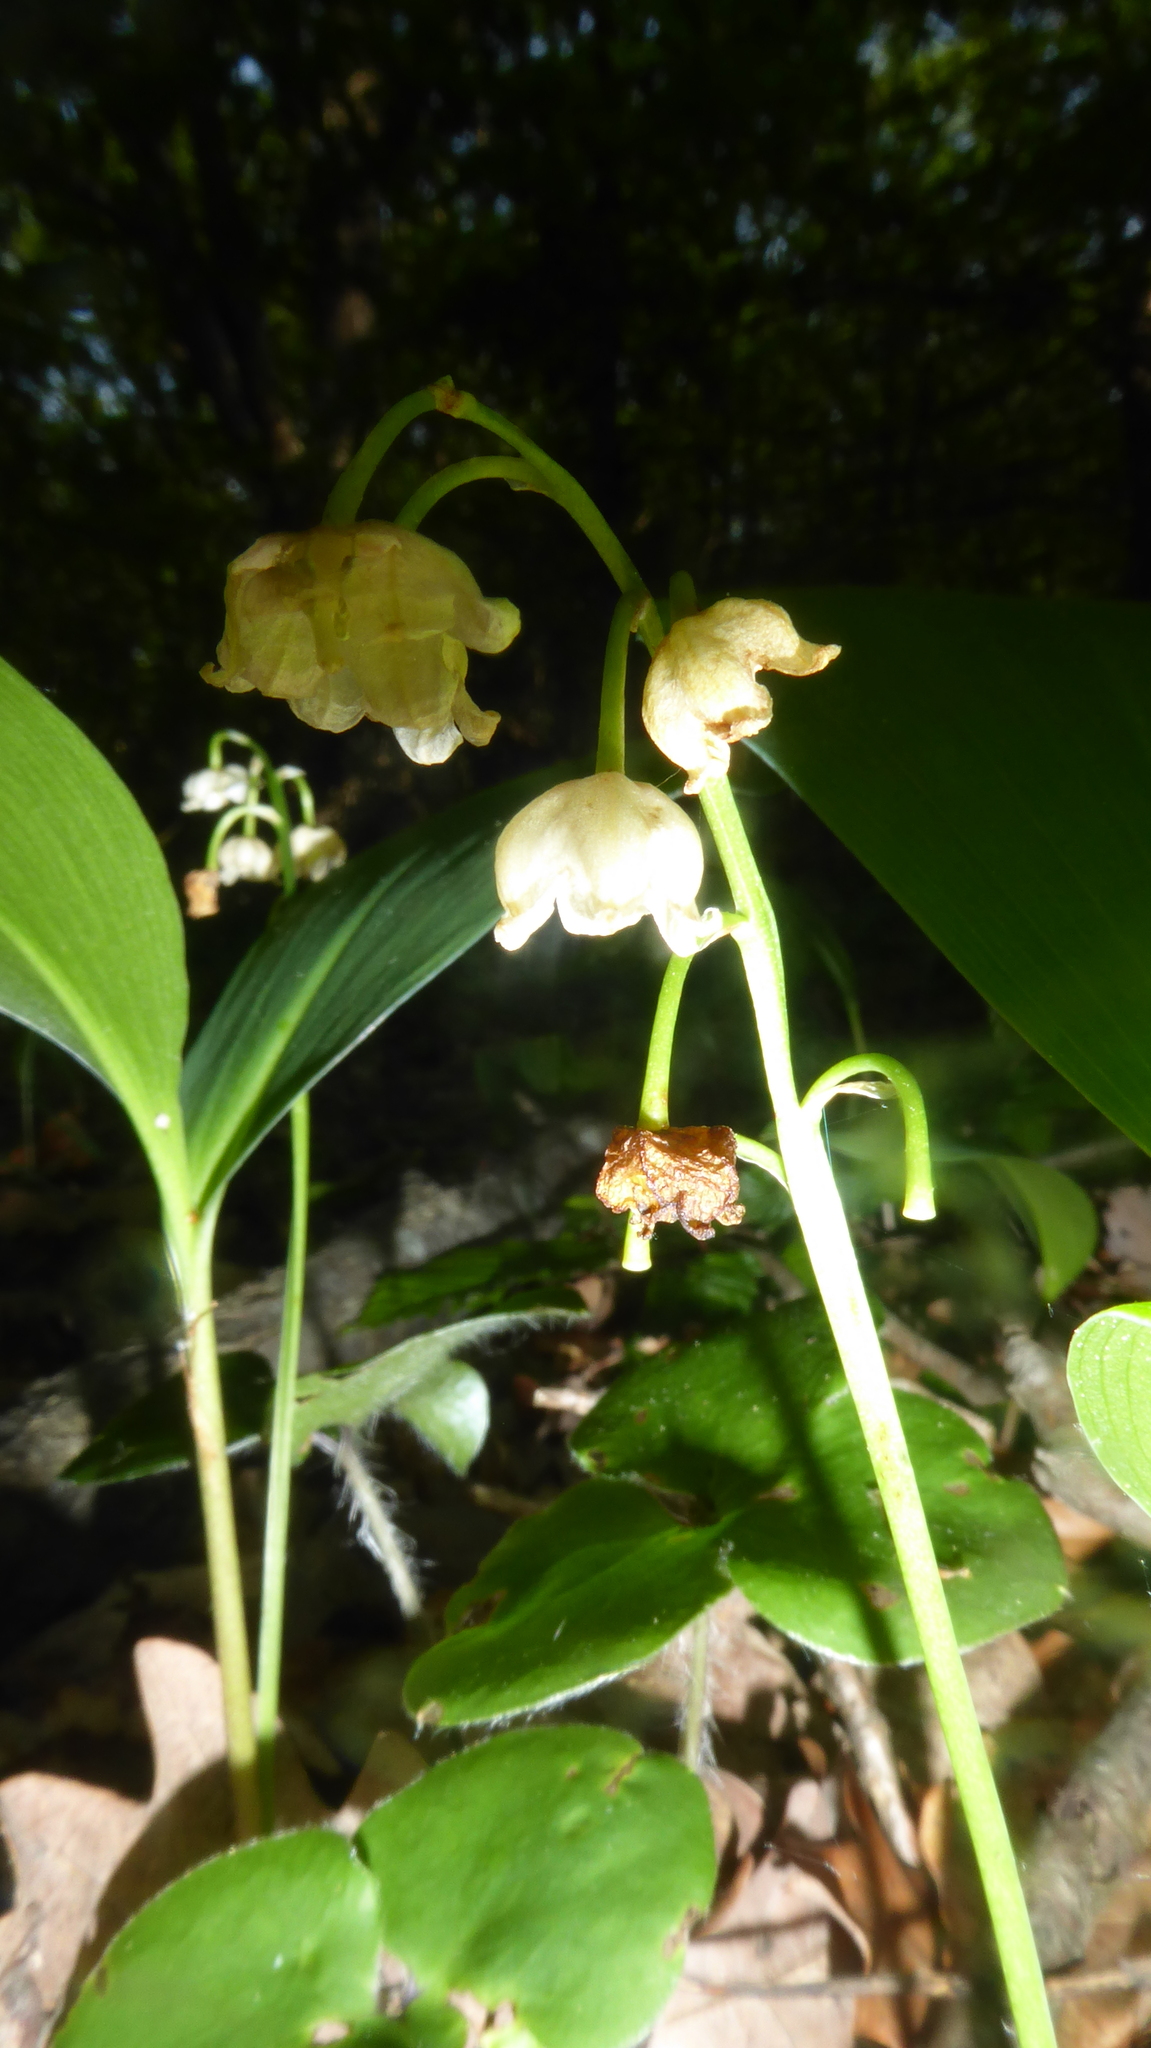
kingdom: Plantae
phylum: Tracheophyta
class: Liliopsida
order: Asparagales
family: Asparagaceae
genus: Convallaria
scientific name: Convallaria majalis
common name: Lily-of-the-valley
